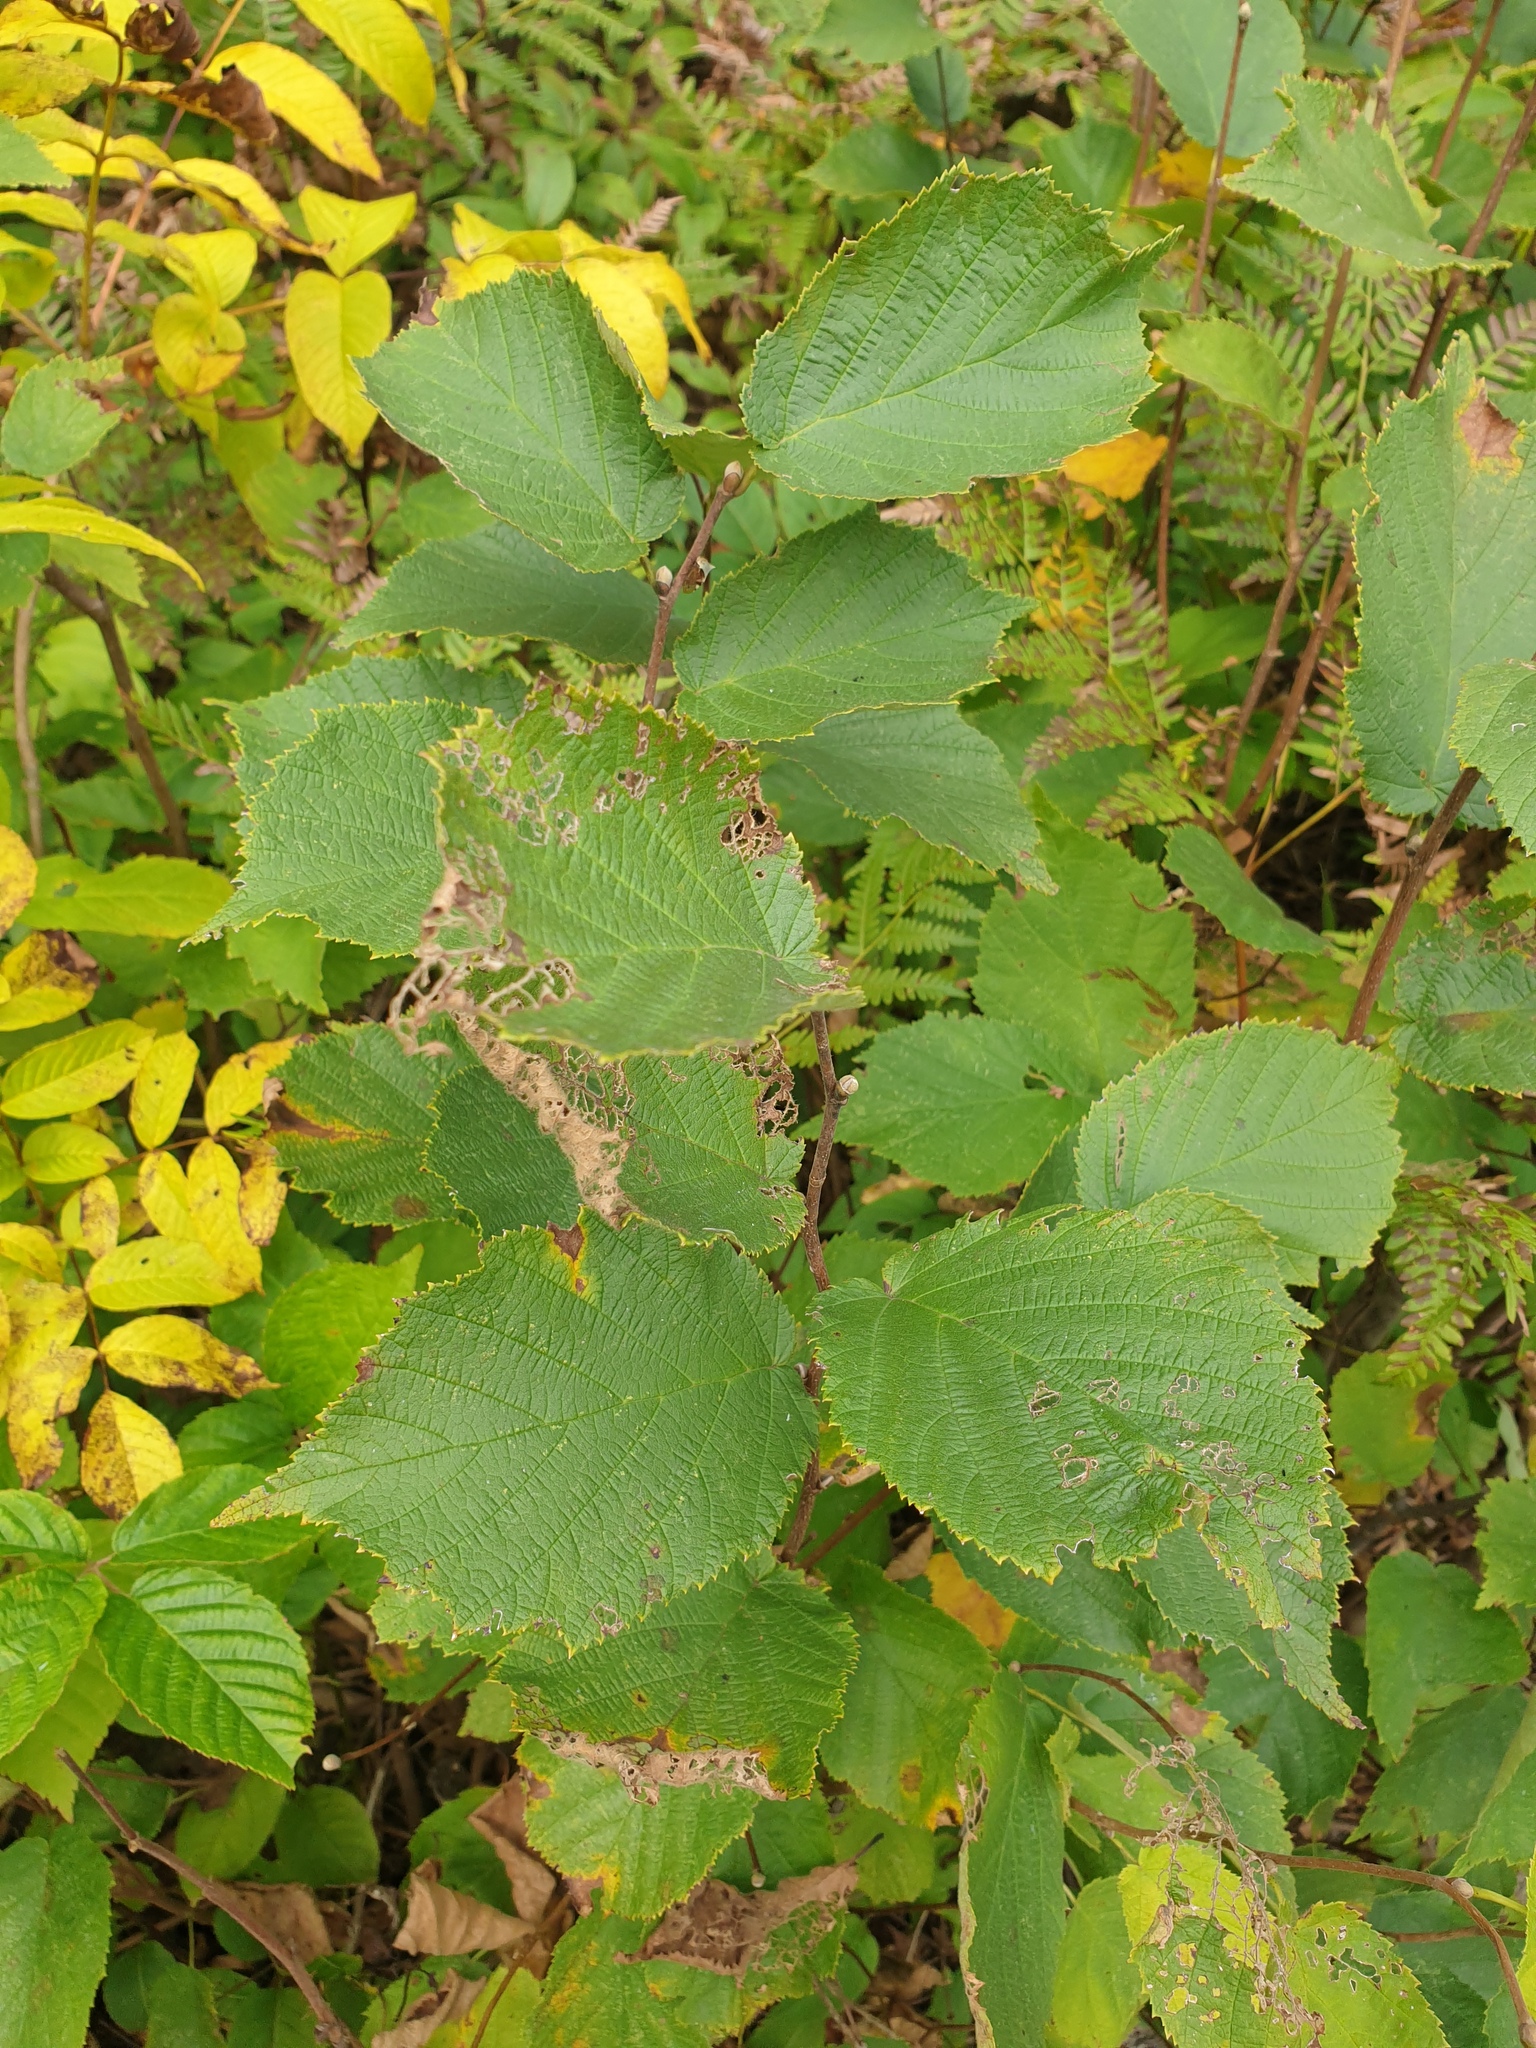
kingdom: Plantae
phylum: Tracheophyta
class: Magnoliopsida
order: Fagales
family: Betulaceae
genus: Corylus
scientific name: Corylus cornuta
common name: Beaked hazel
